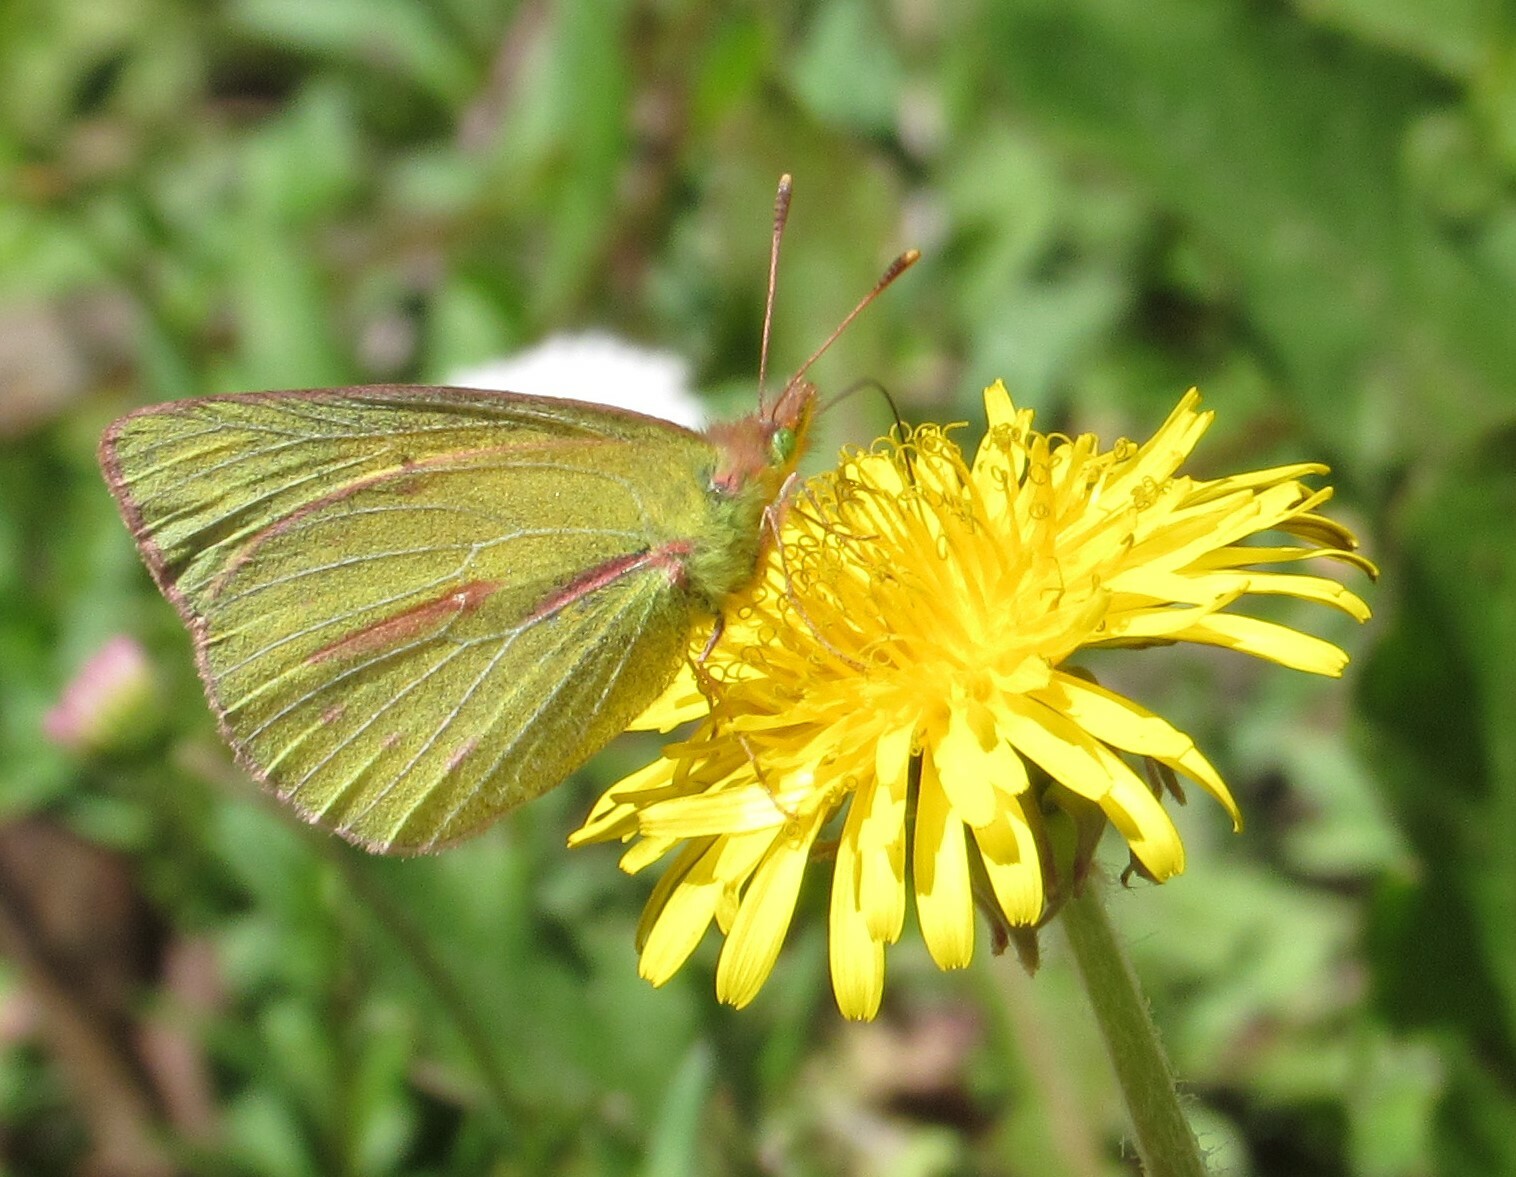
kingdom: Animalia
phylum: Arthropoda
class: Insecta
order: Lepidoptera
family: Pieridae
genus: Colias
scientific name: Colias dimera
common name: Dimera sulphur
